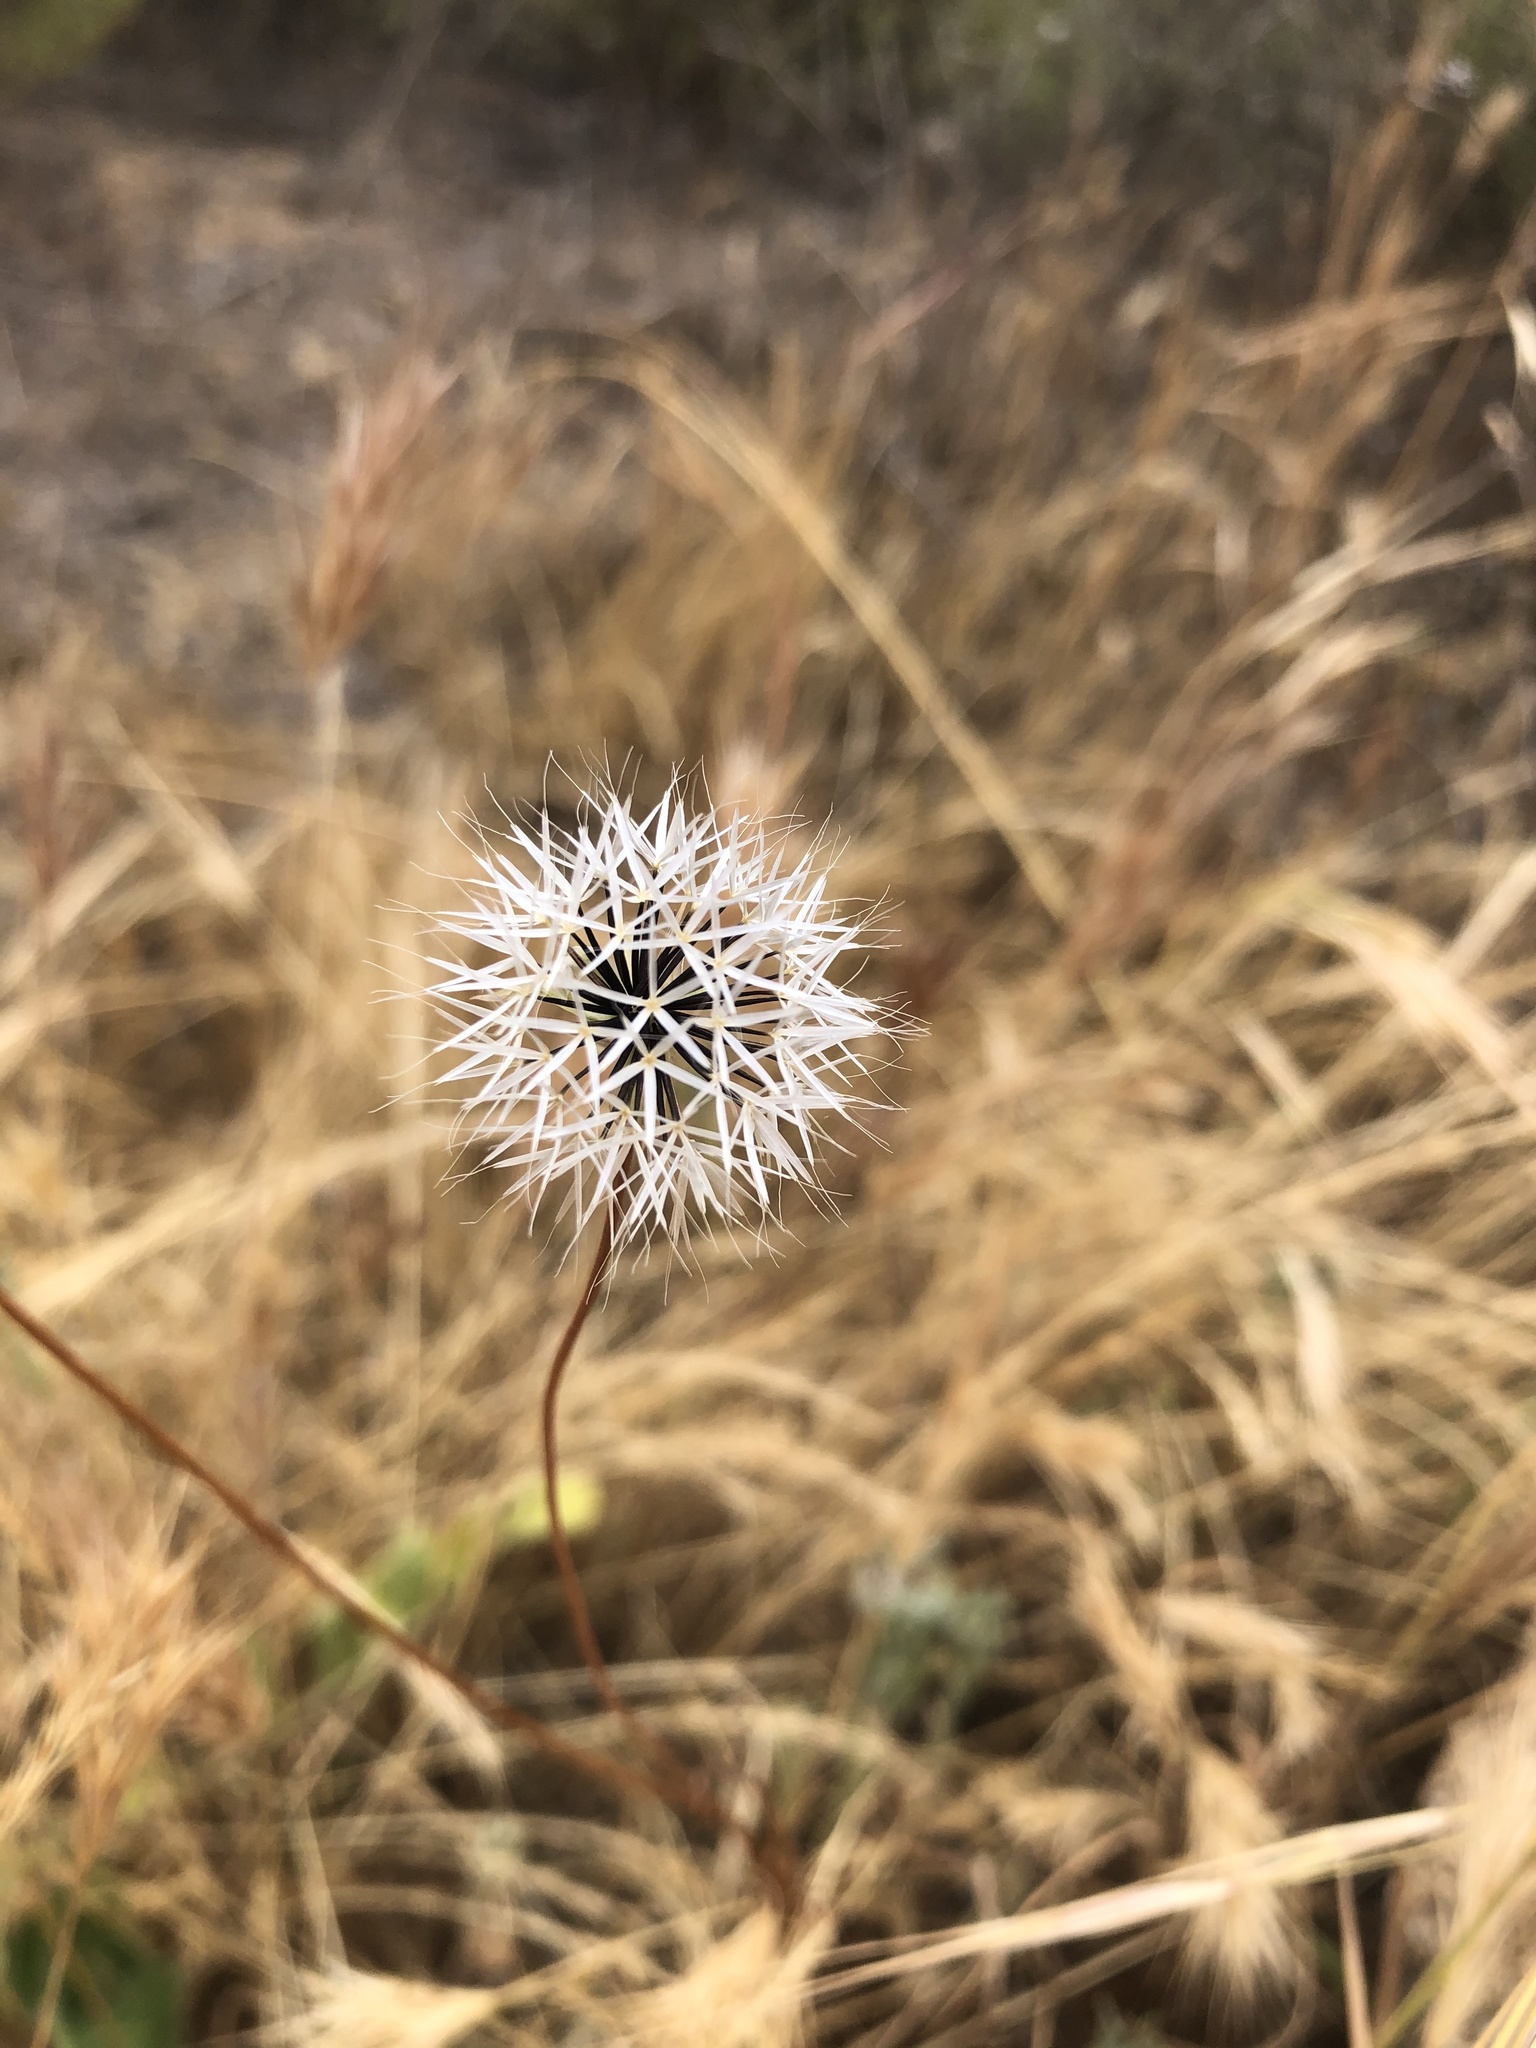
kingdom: Plantae
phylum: Tracheophyta
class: Magnoliopsida
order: Asterales
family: Asteraceae
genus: Microseris
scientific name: Microseris lindleyi
